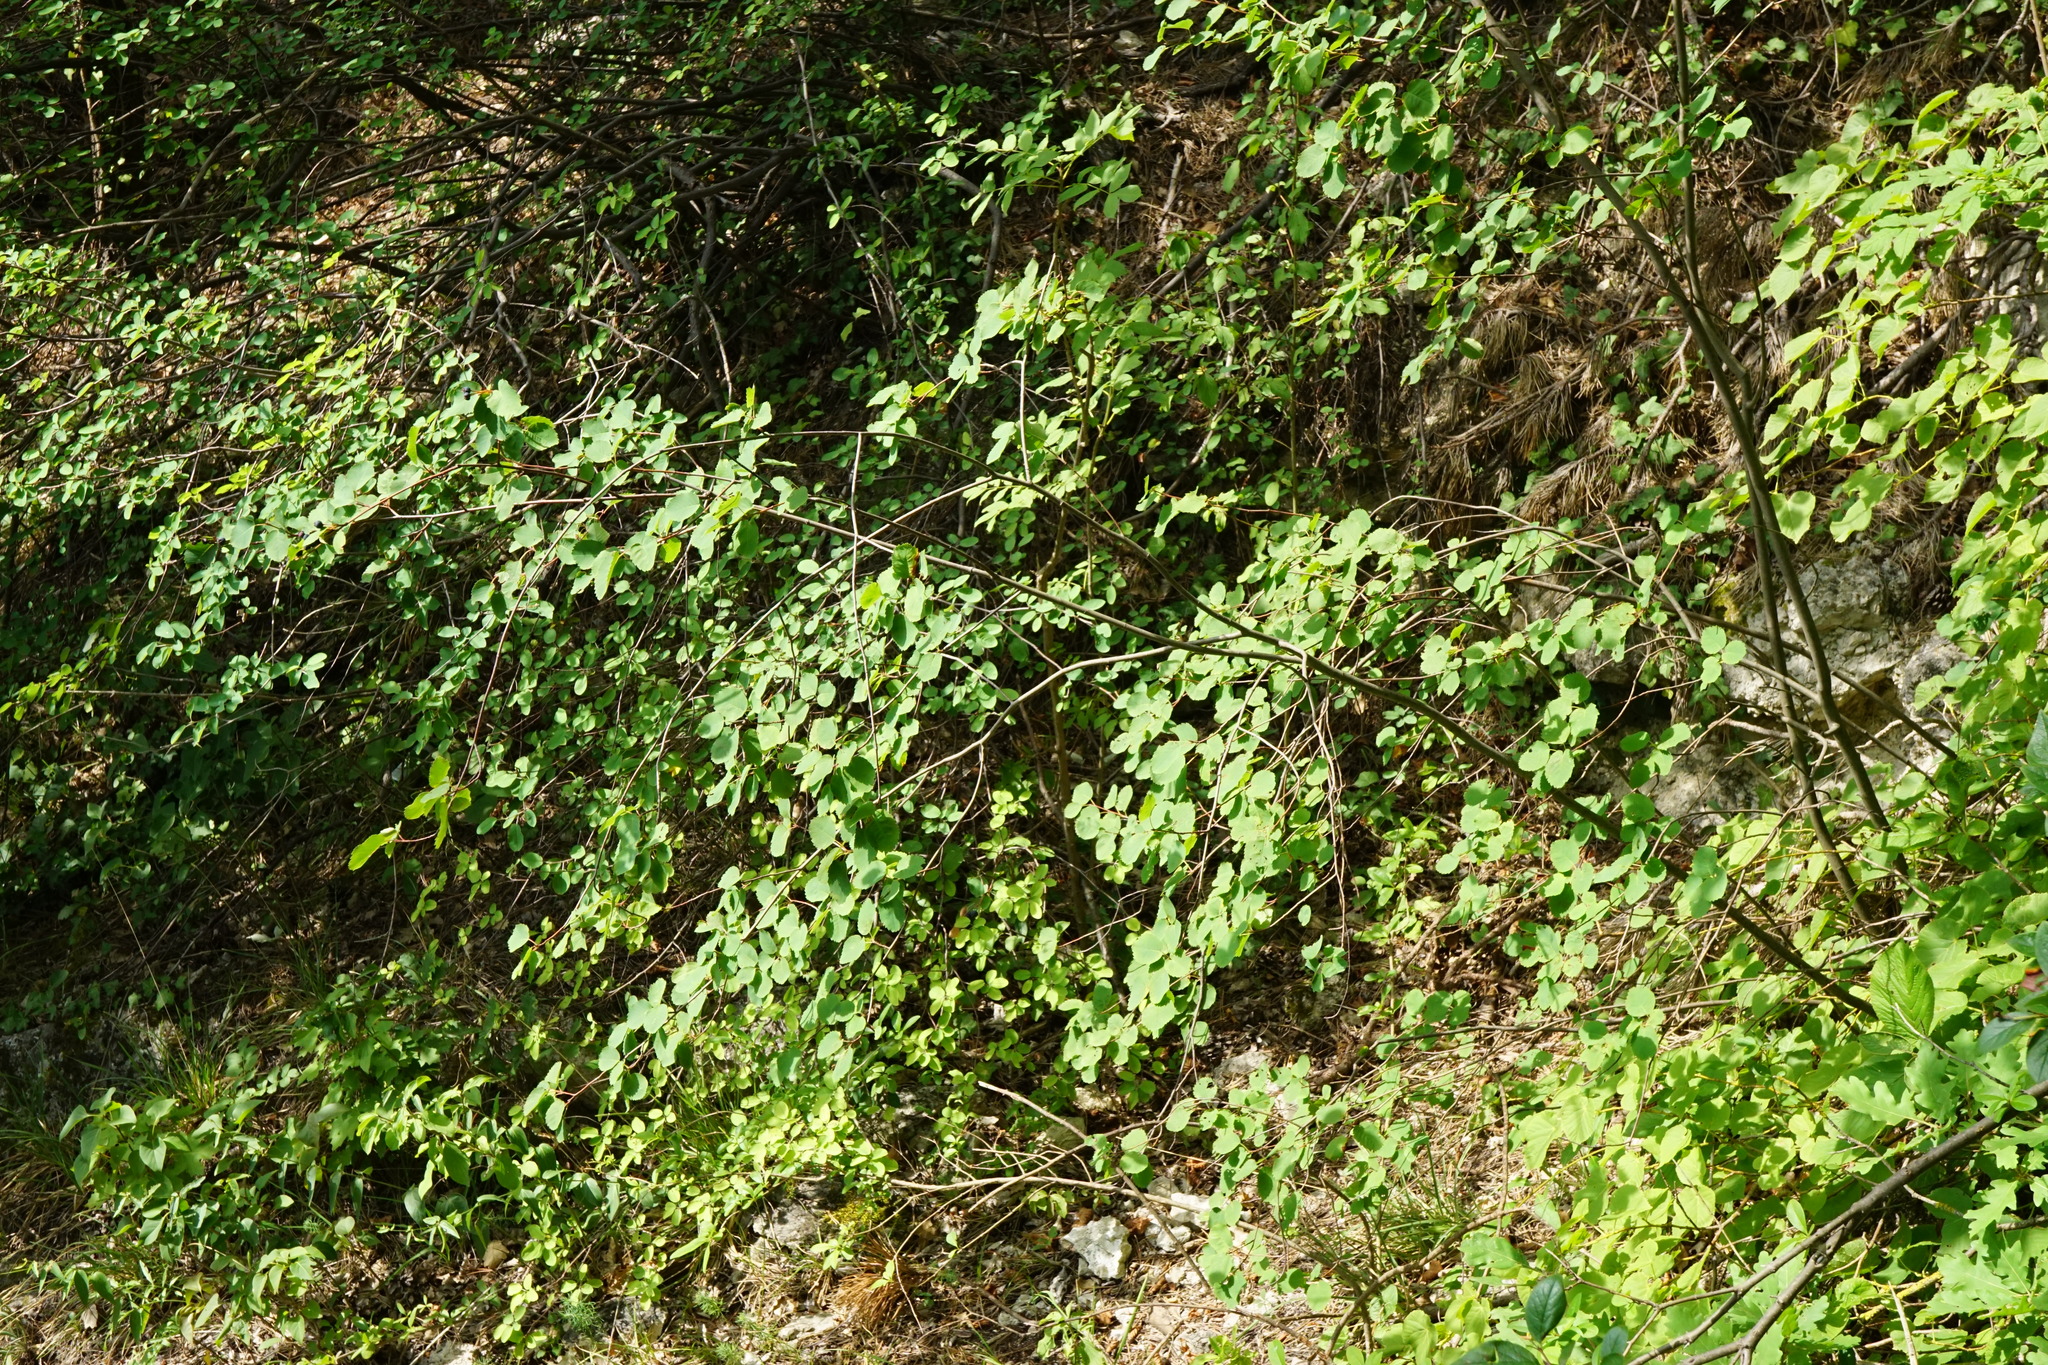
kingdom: Plantae
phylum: Tracheophyta
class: Magnoliopsida
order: Rosales
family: Rosaceae
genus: Amelanchier
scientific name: Amelanchier alnifolia
